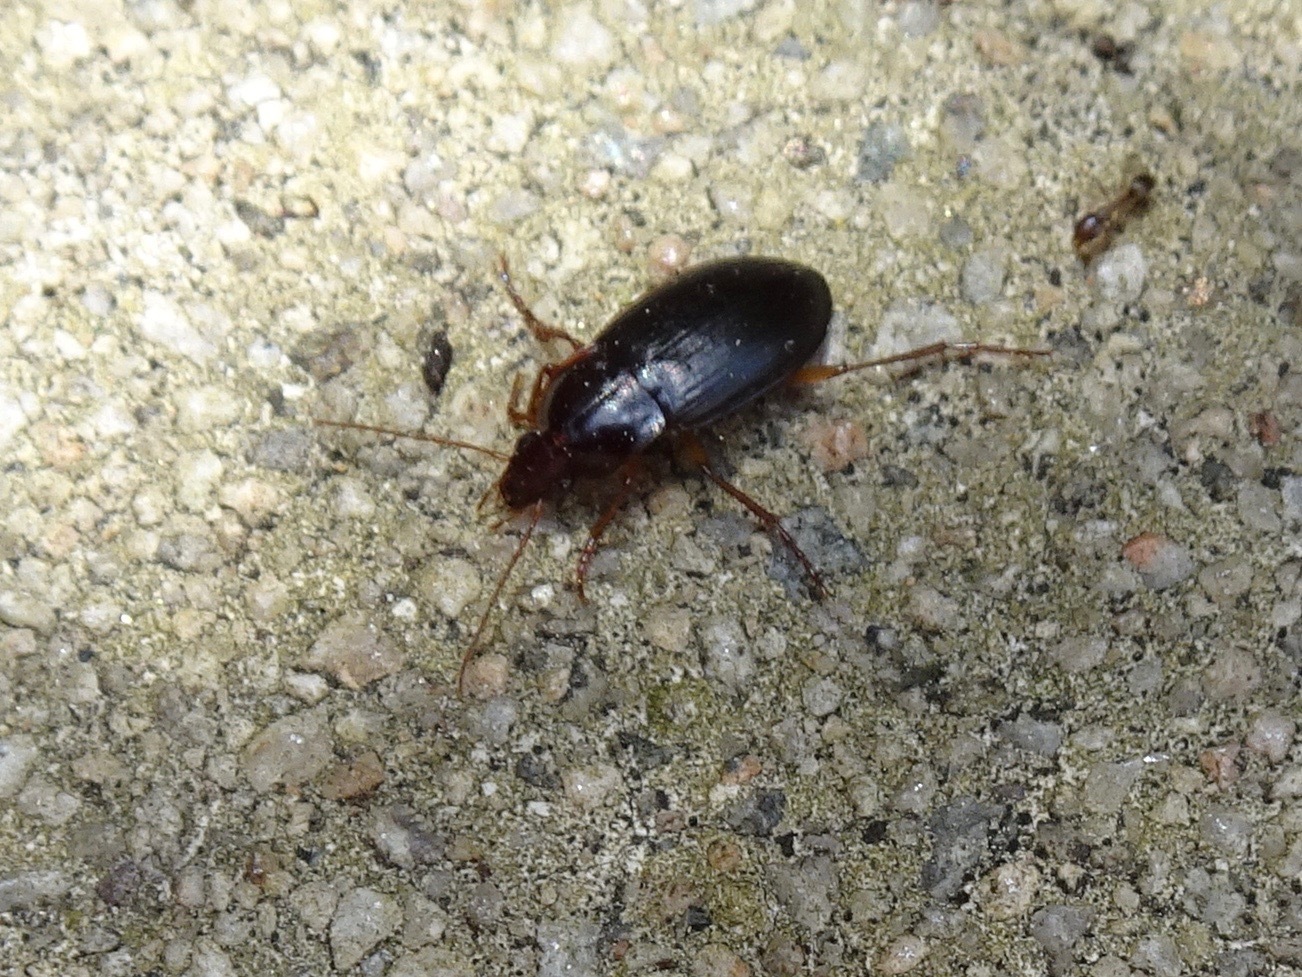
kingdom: Animalia
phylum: Arthropoda
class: Insecta
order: Coleoptera
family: Carabidae
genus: Calathus
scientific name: Calathus ruficollis
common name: Red-collared harp ground beetle
